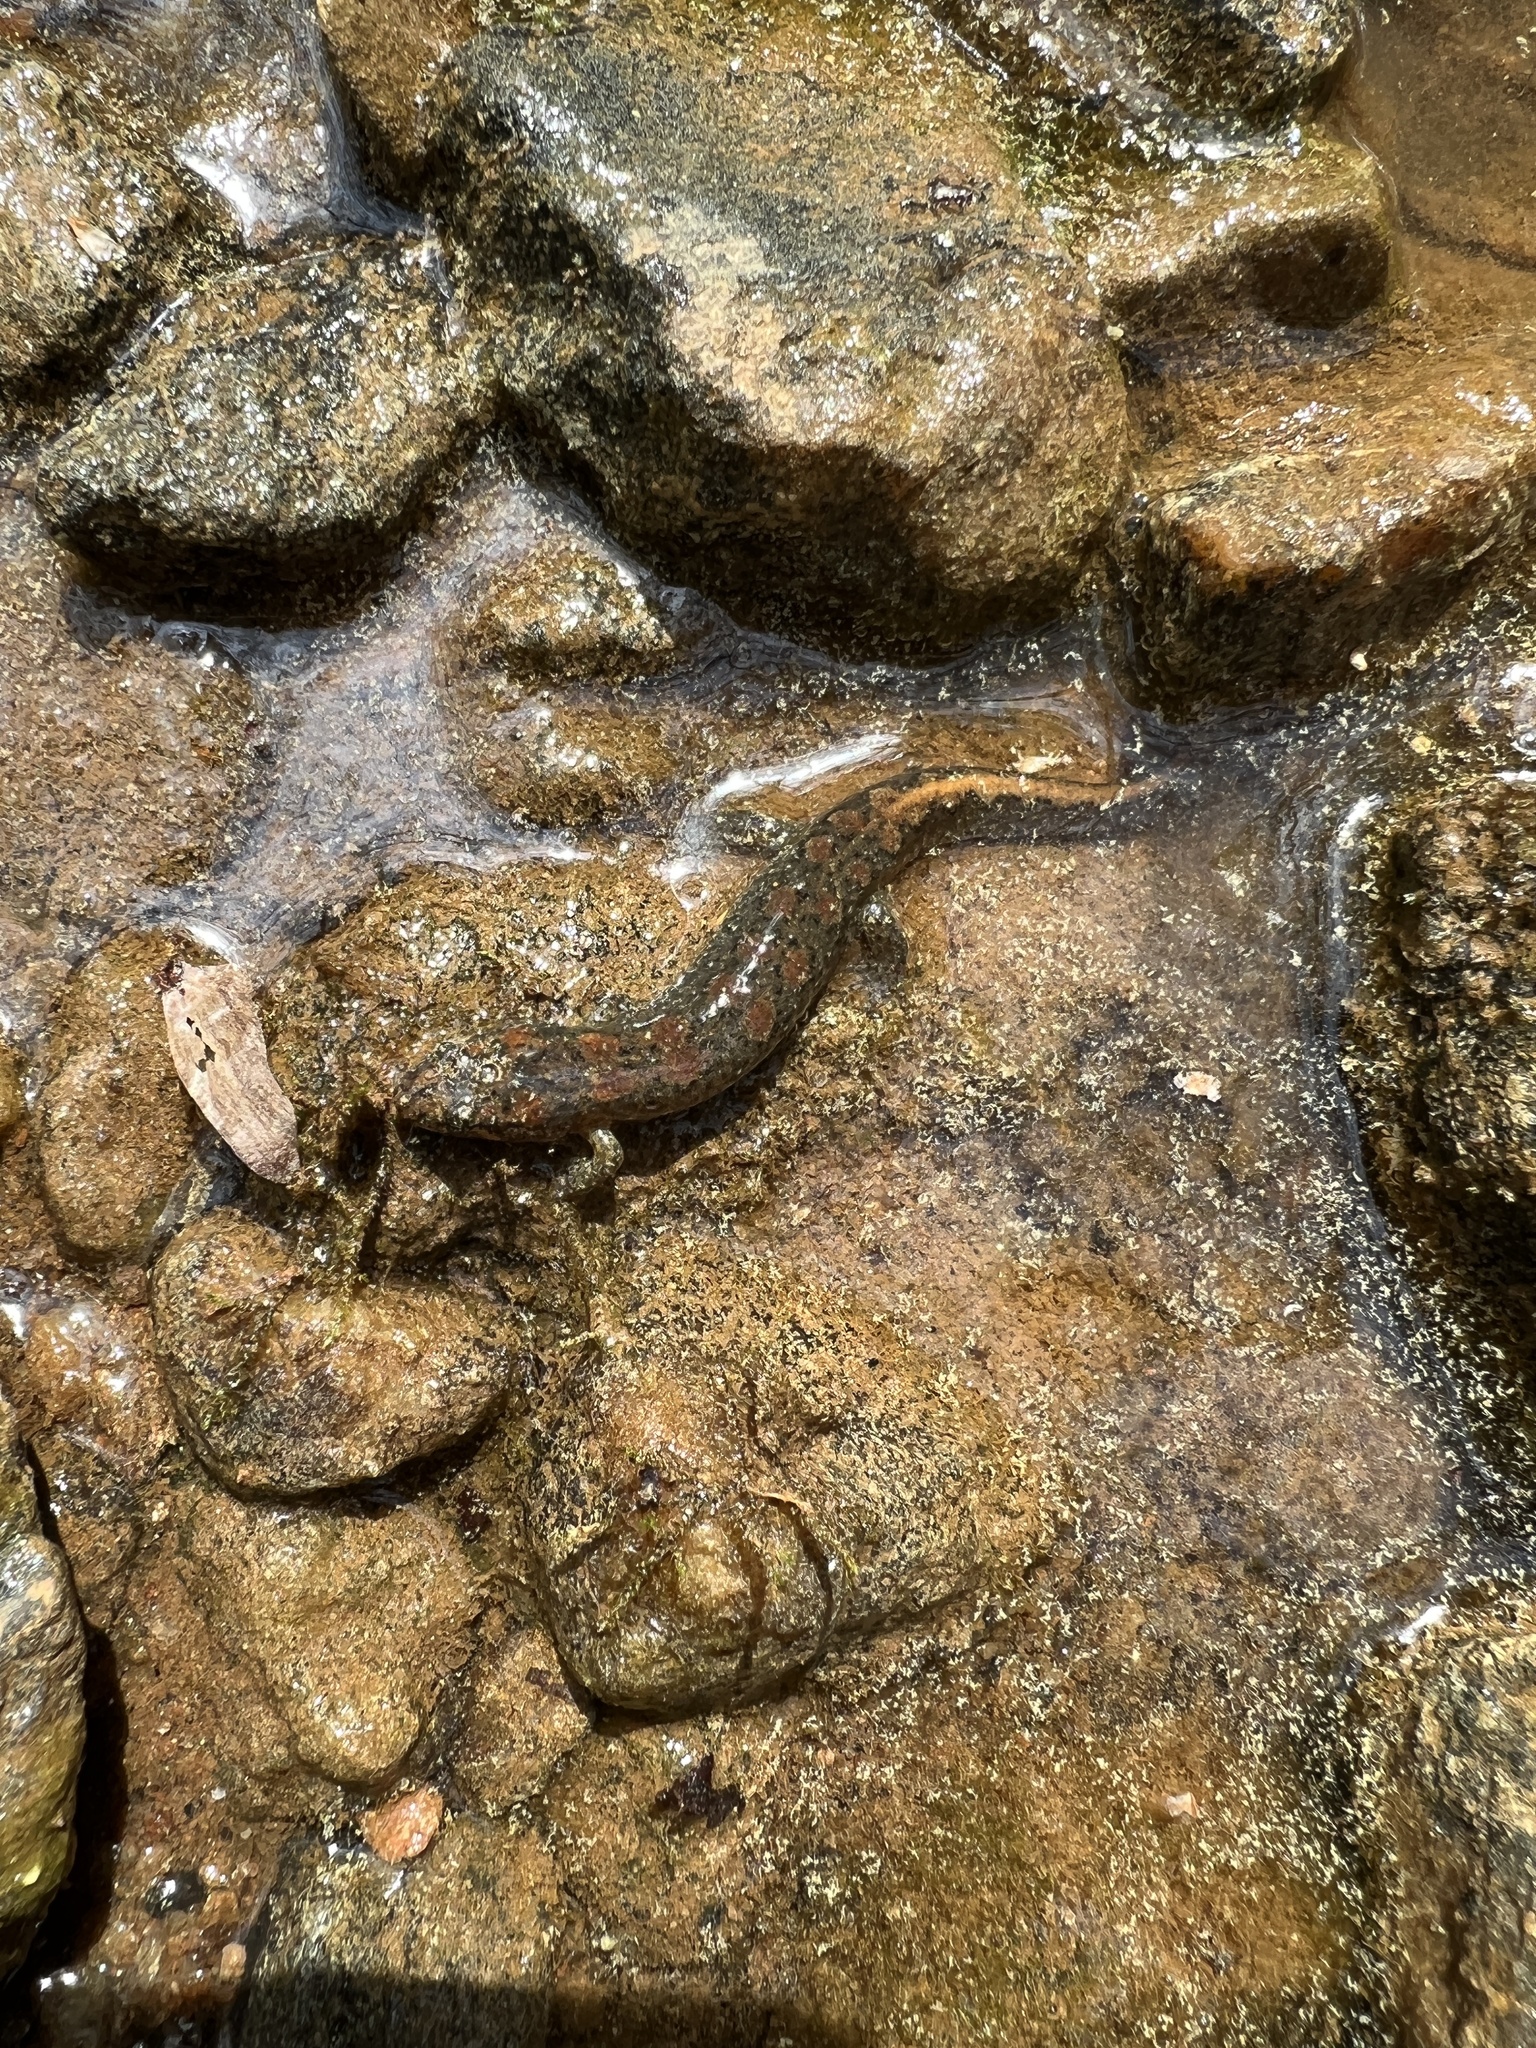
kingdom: Animalia
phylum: Chordata
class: Amphibia
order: Caudata
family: Plethodontidae
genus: Desmognathus
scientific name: Desmognathus conanti
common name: Spotted dusky salamander
